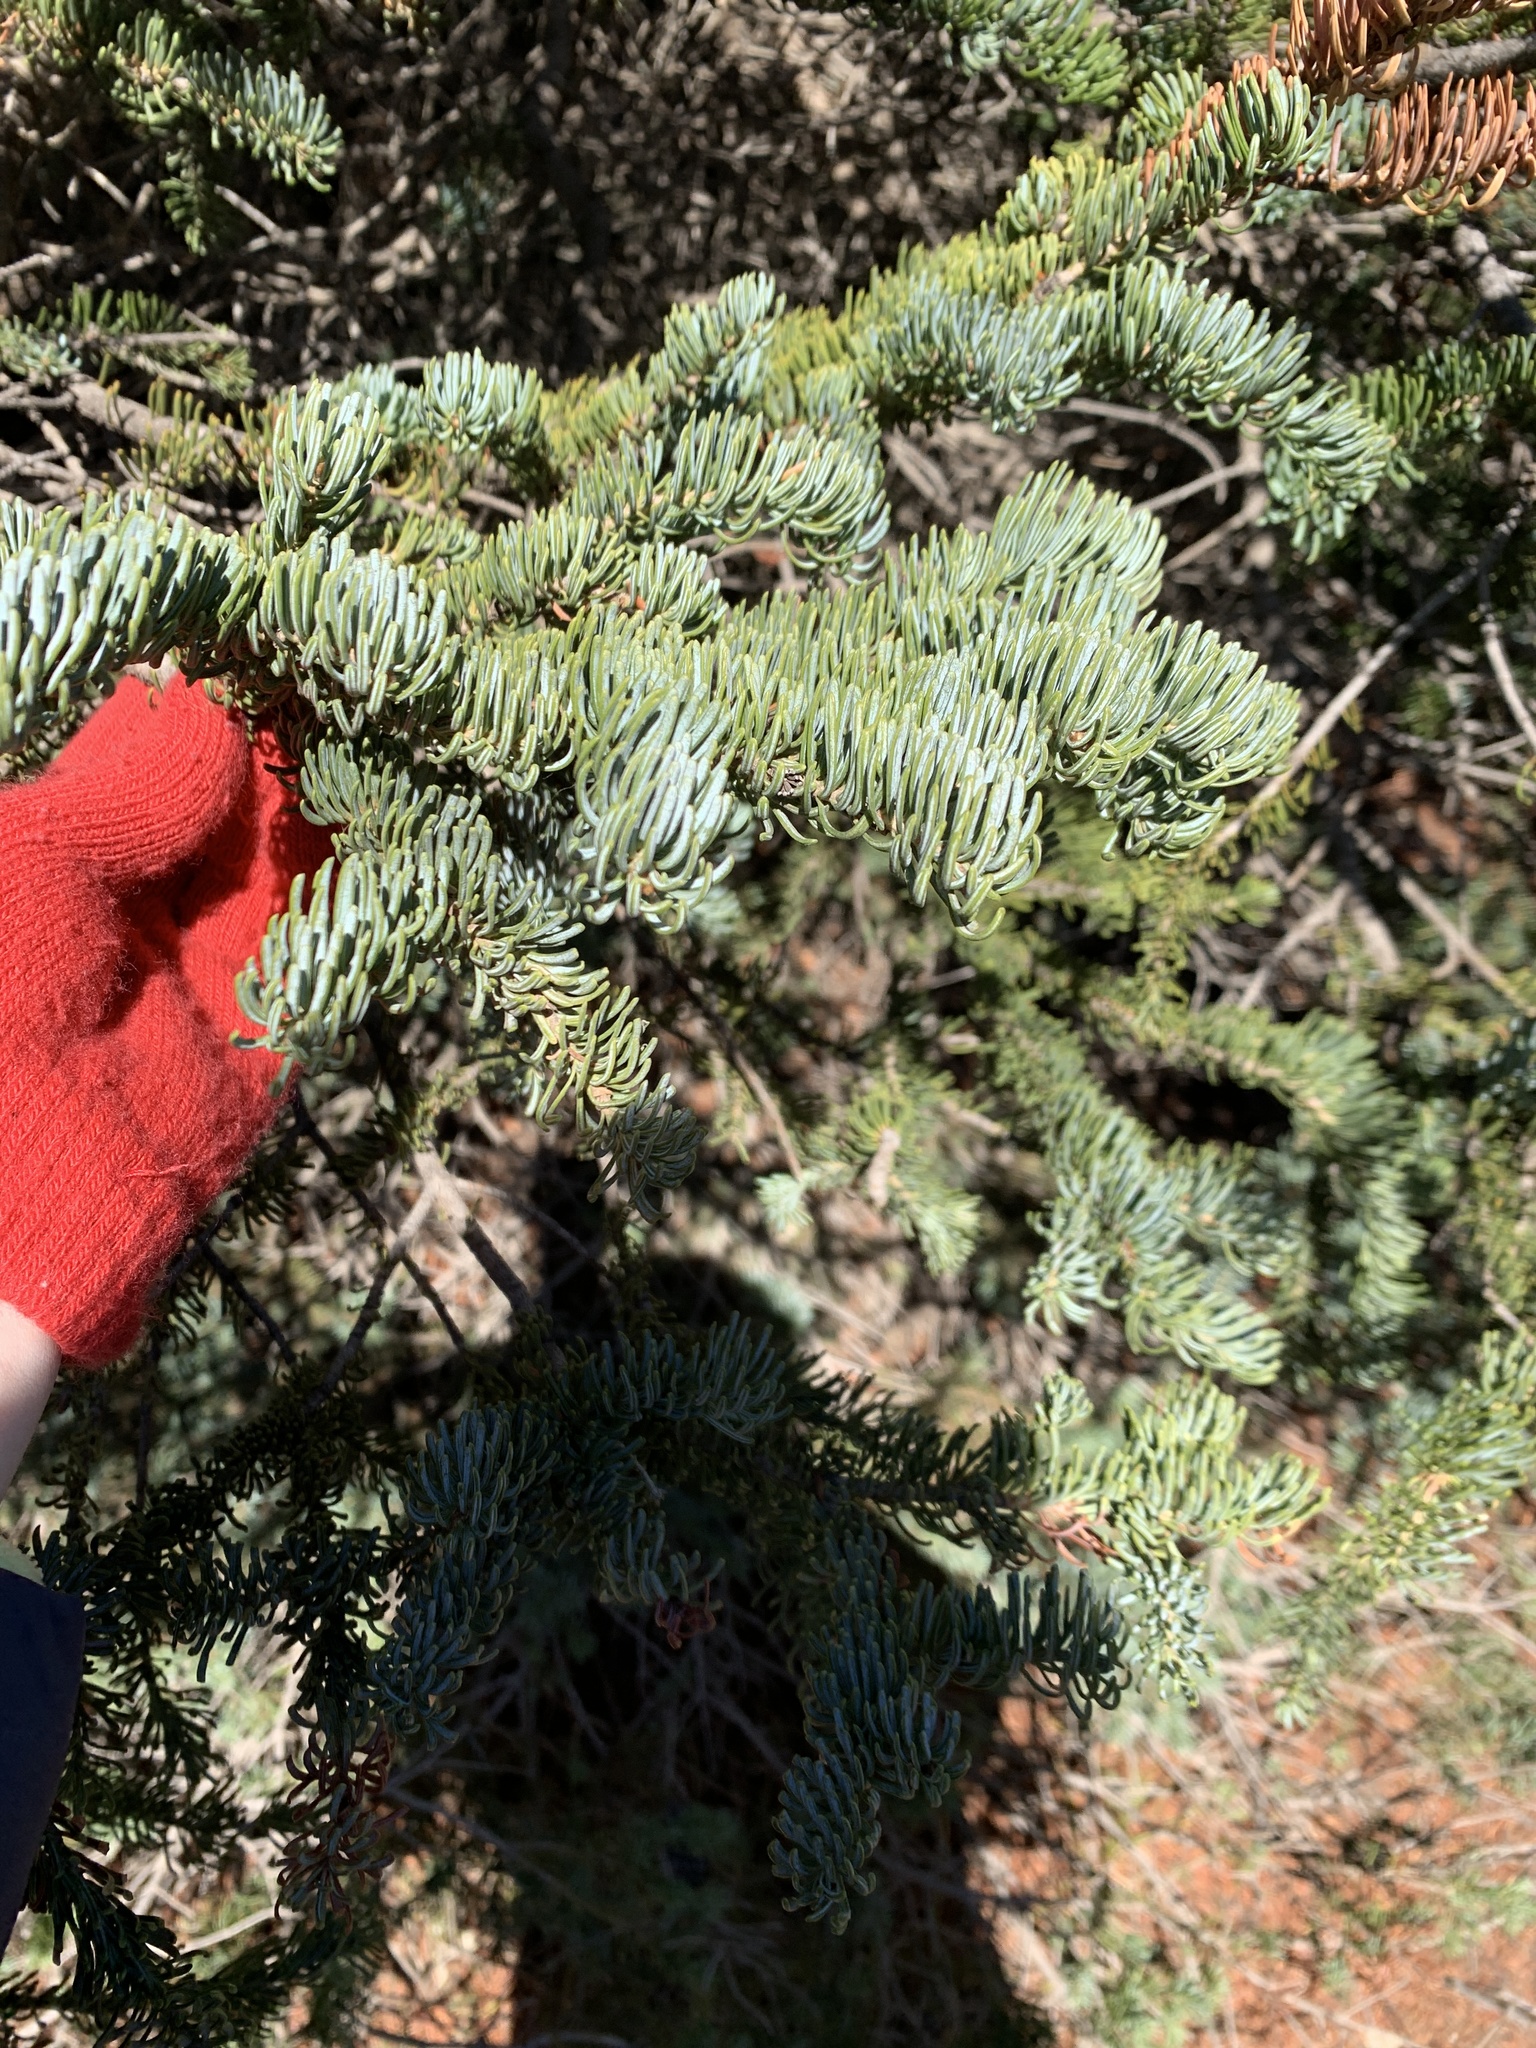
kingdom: Plantae
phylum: Tracheophyta
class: Pinopsida
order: Pinales
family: Pinaceae
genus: Abies
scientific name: Abies lasiocarpa
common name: Subalpine fir
